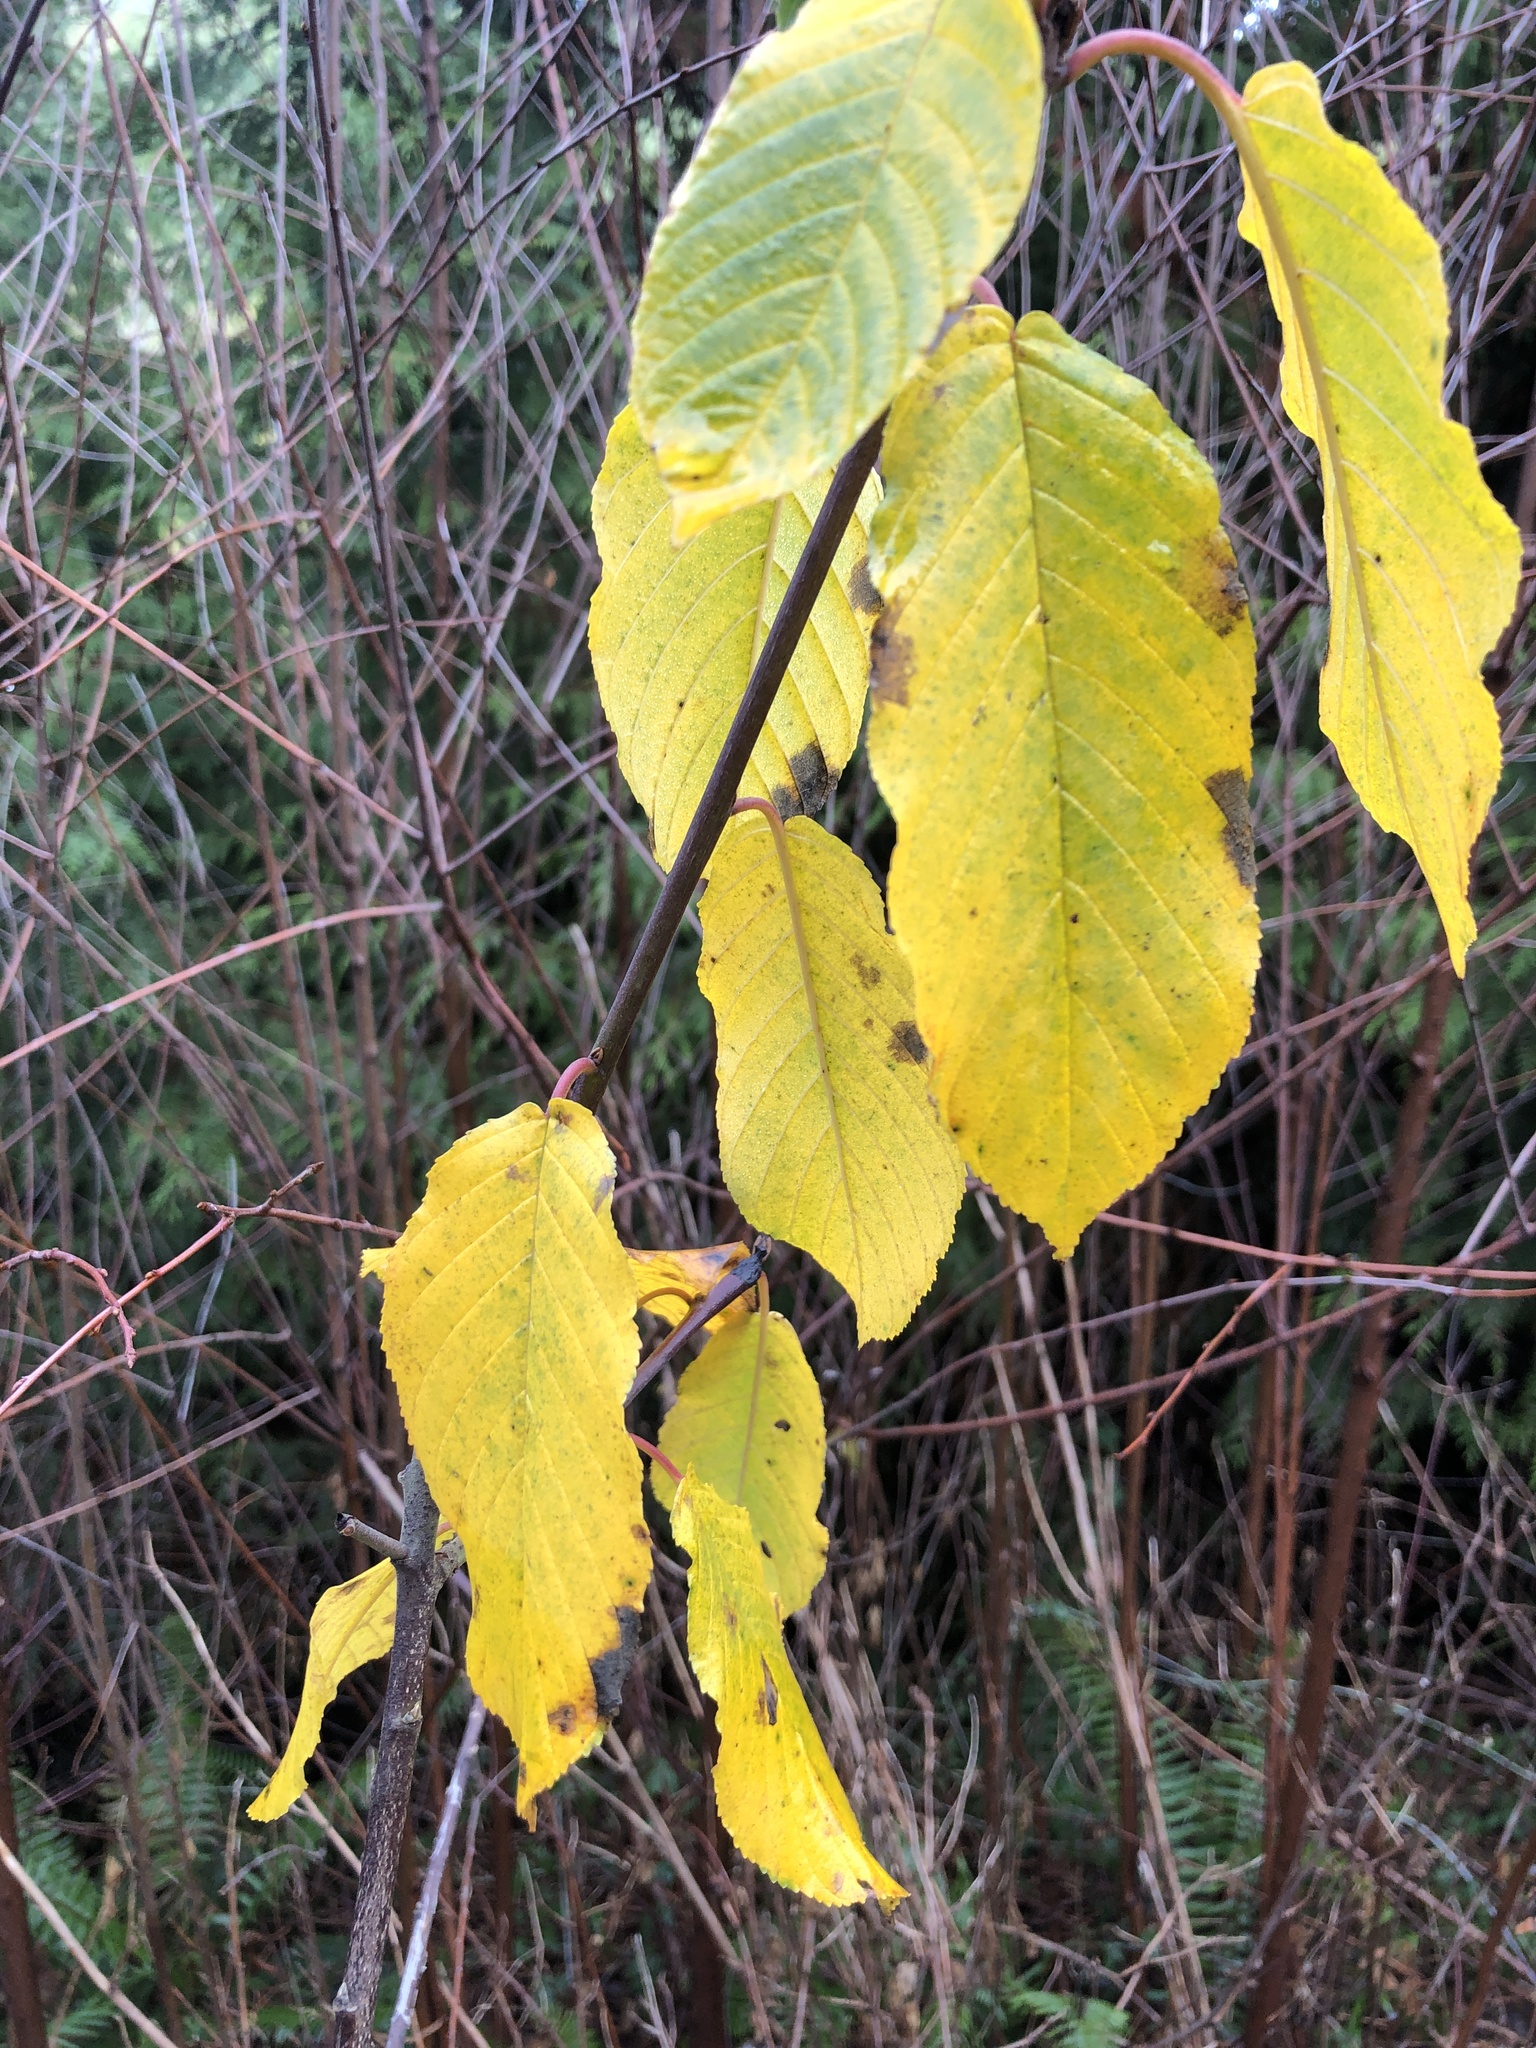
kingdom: Plantae
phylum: Tracheophyta
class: Magnoliopsida
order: Rosales
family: Rhamnaceae
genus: Frangula
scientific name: Frangula purshiana
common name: Cascara buckthorn
